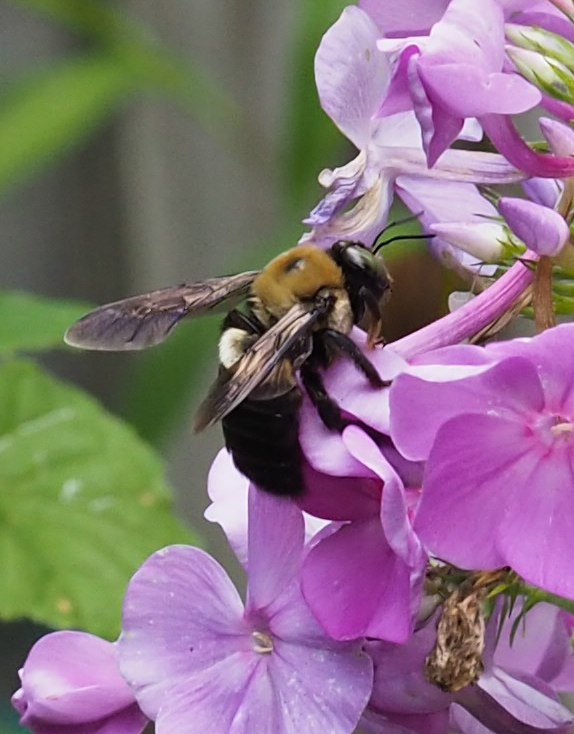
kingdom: Animalia
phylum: Arthropoda
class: Insecta
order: Hymenoptera
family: Apidae
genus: Xylocopa
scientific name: Xylocopa virginica
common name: Carpenter bee
